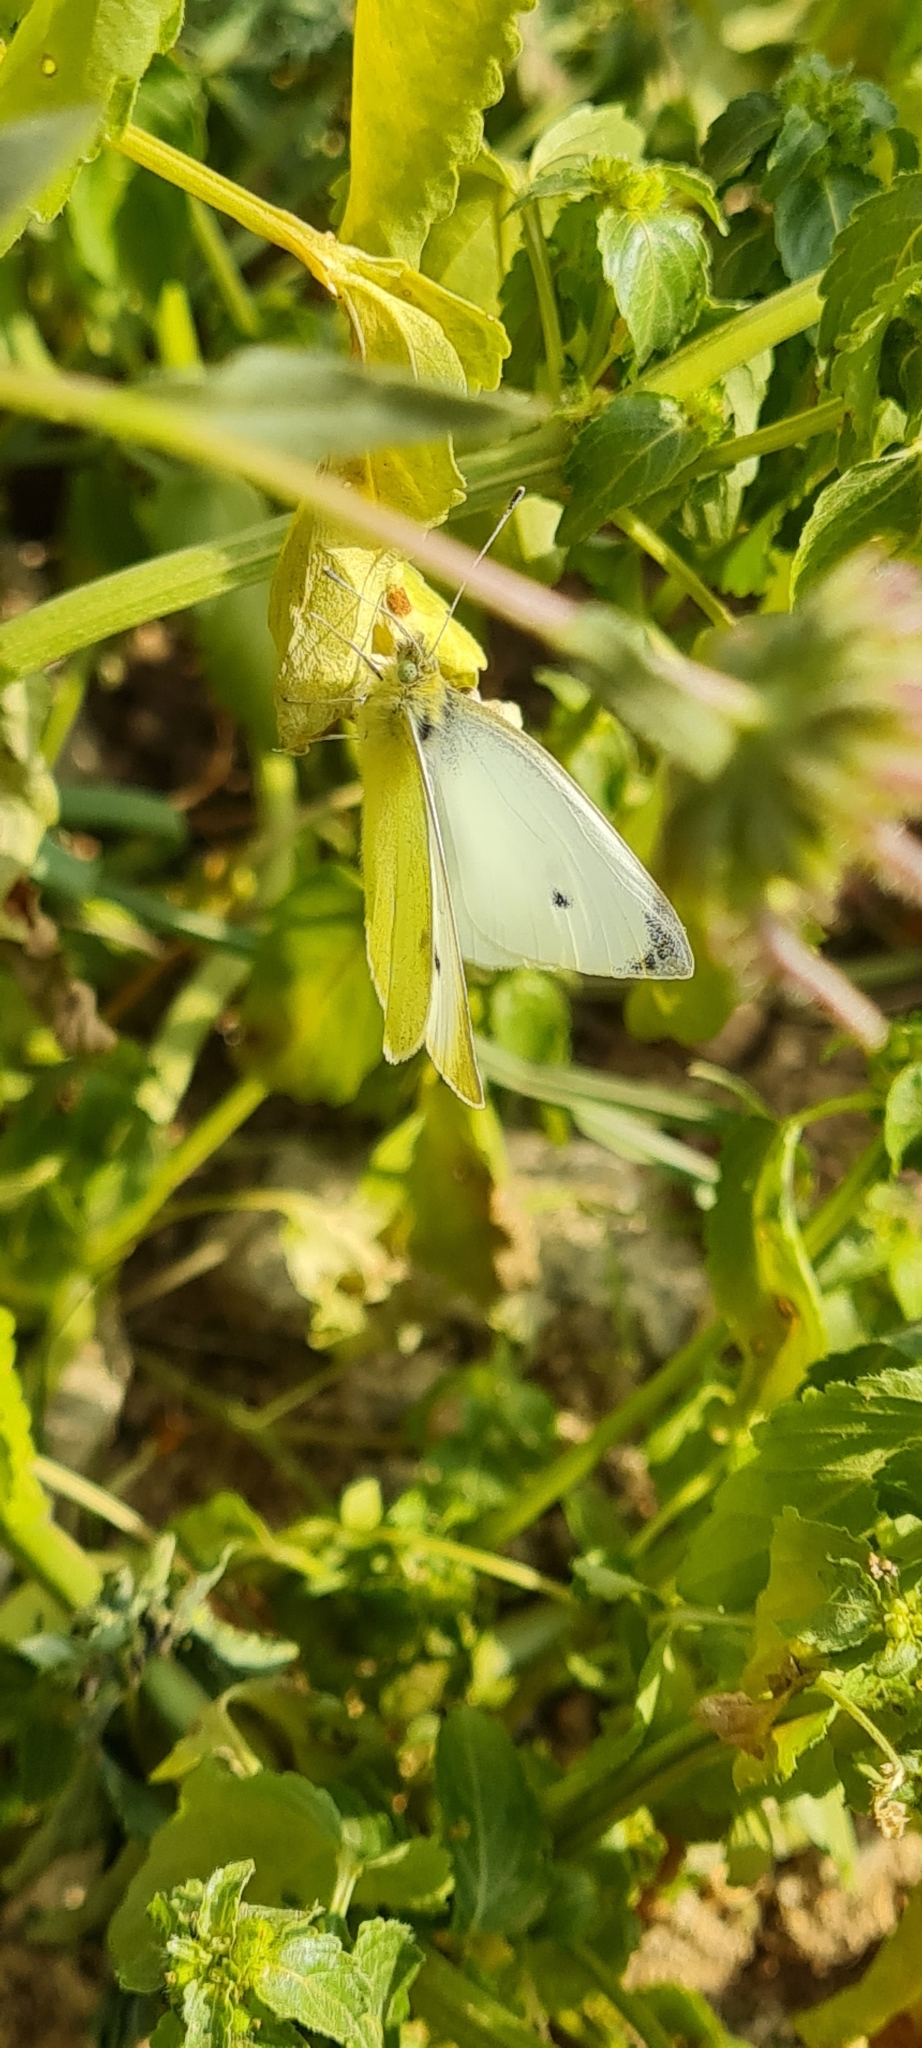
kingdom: Animalia
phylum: Arthropoda
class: Insecta
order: Lepidoptera
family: Pieridae
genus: Pieris
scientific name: Pieris rapae
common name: Small white
